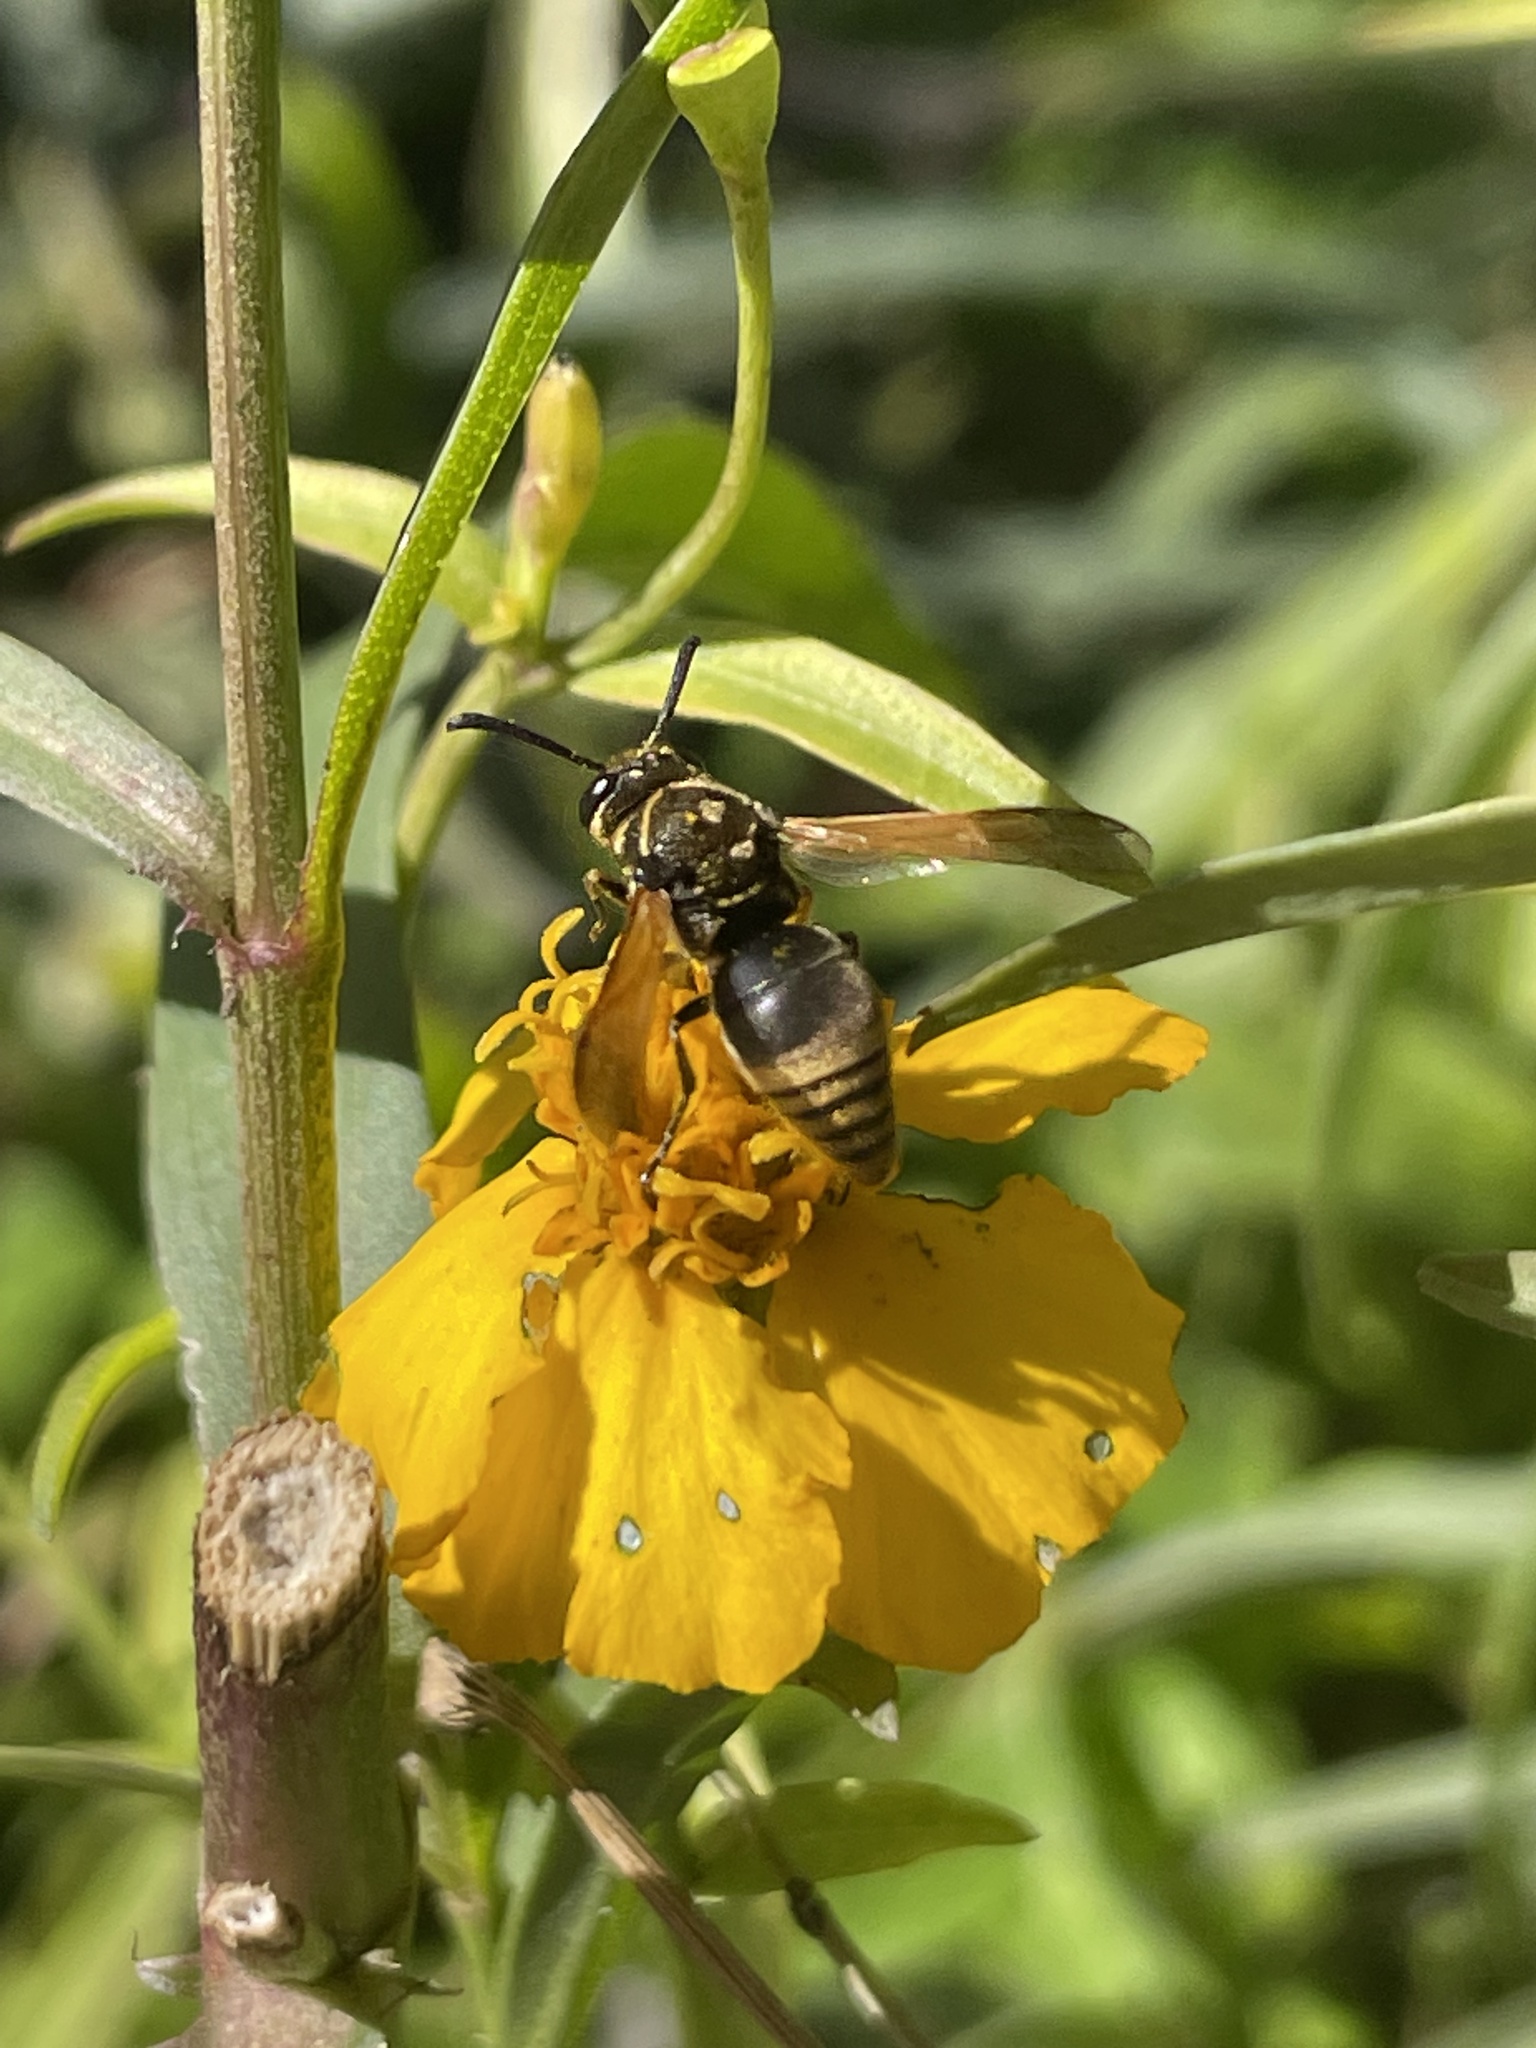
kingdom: Animalia
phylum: Arthropoda
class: Insecta
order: Hymenoptera
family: Eumenidae
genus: Pachodynerus
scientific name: Pachodynerus nasidens
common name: Key hole wasp
